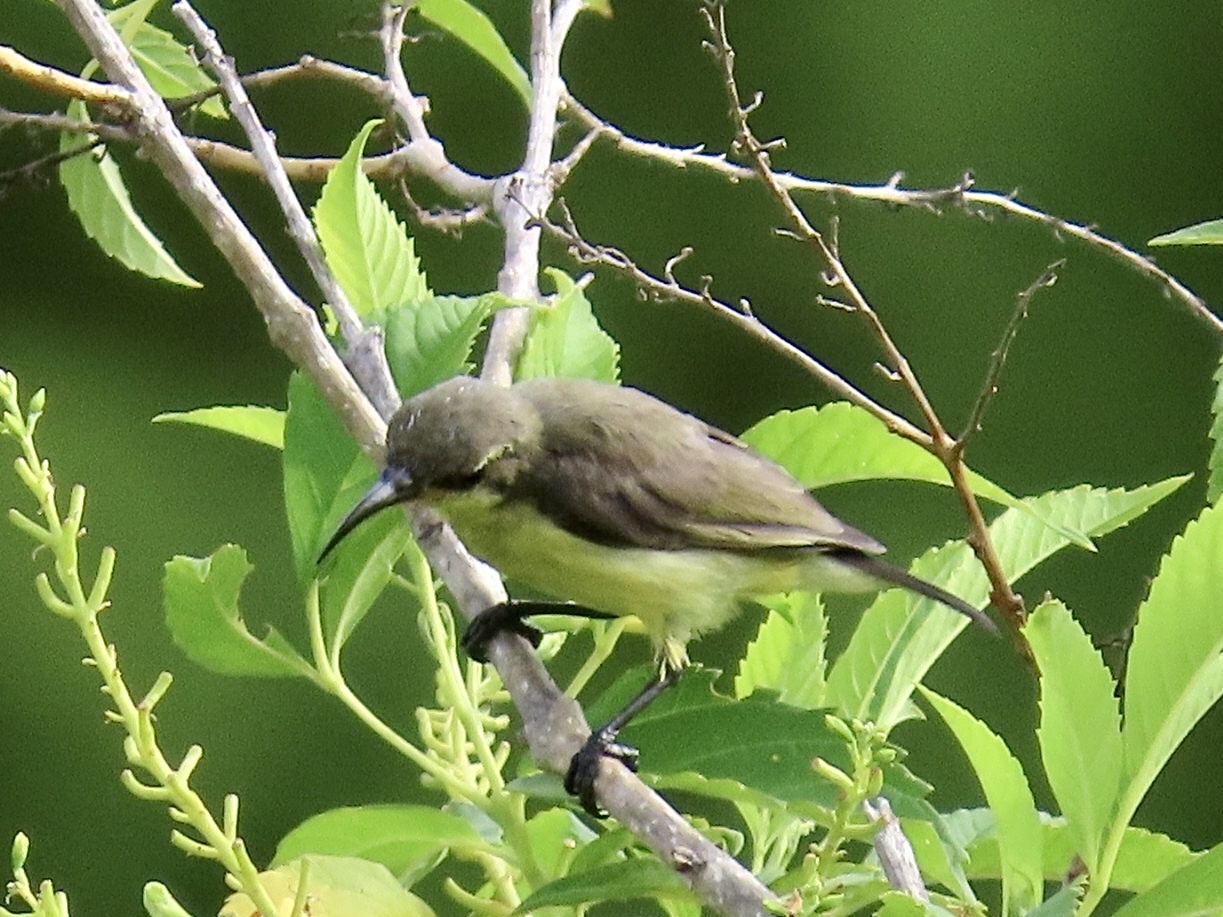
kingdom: Animalia
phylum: Chordata
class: Aves
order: Passeriformes
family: Nectariniidae
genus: Cinnyris
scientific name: Cinnyris
